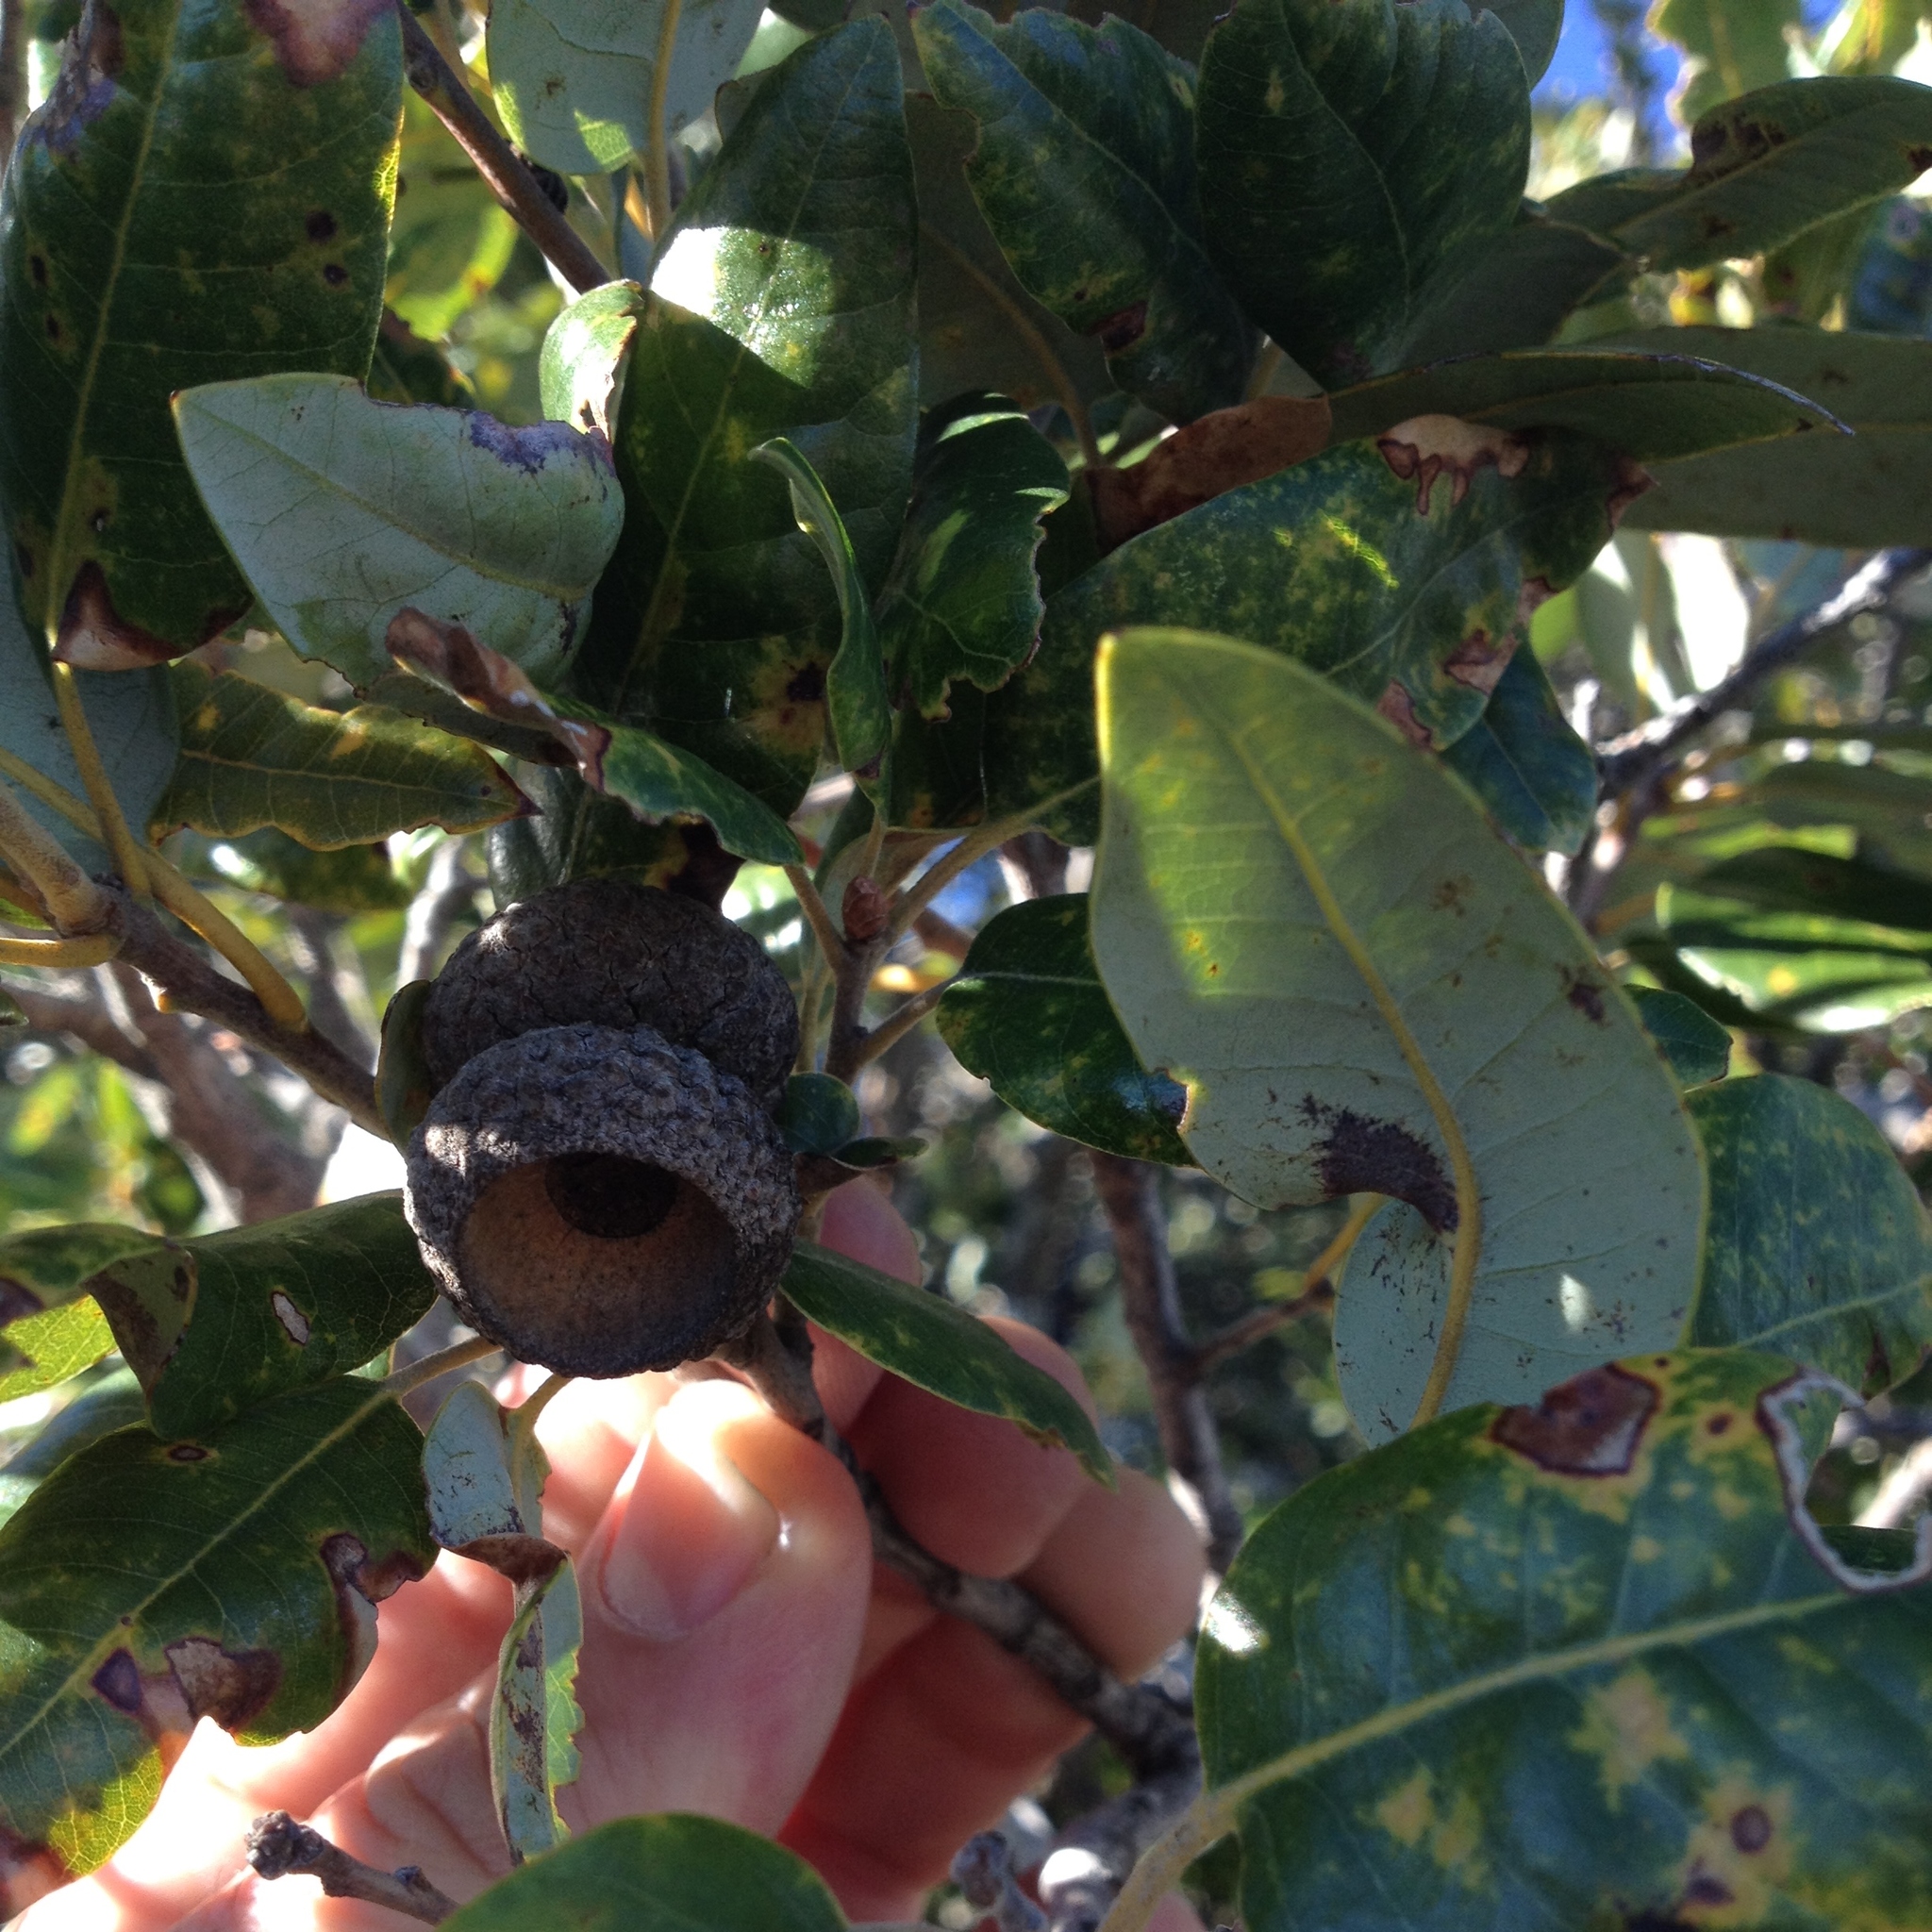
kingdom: Plantae
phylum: Tracheophyta
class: Magnoliopsida
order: Fagales
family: Fagaceae
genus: Quercus
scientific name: Quercus chrysolepis
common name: Canyon live oak
